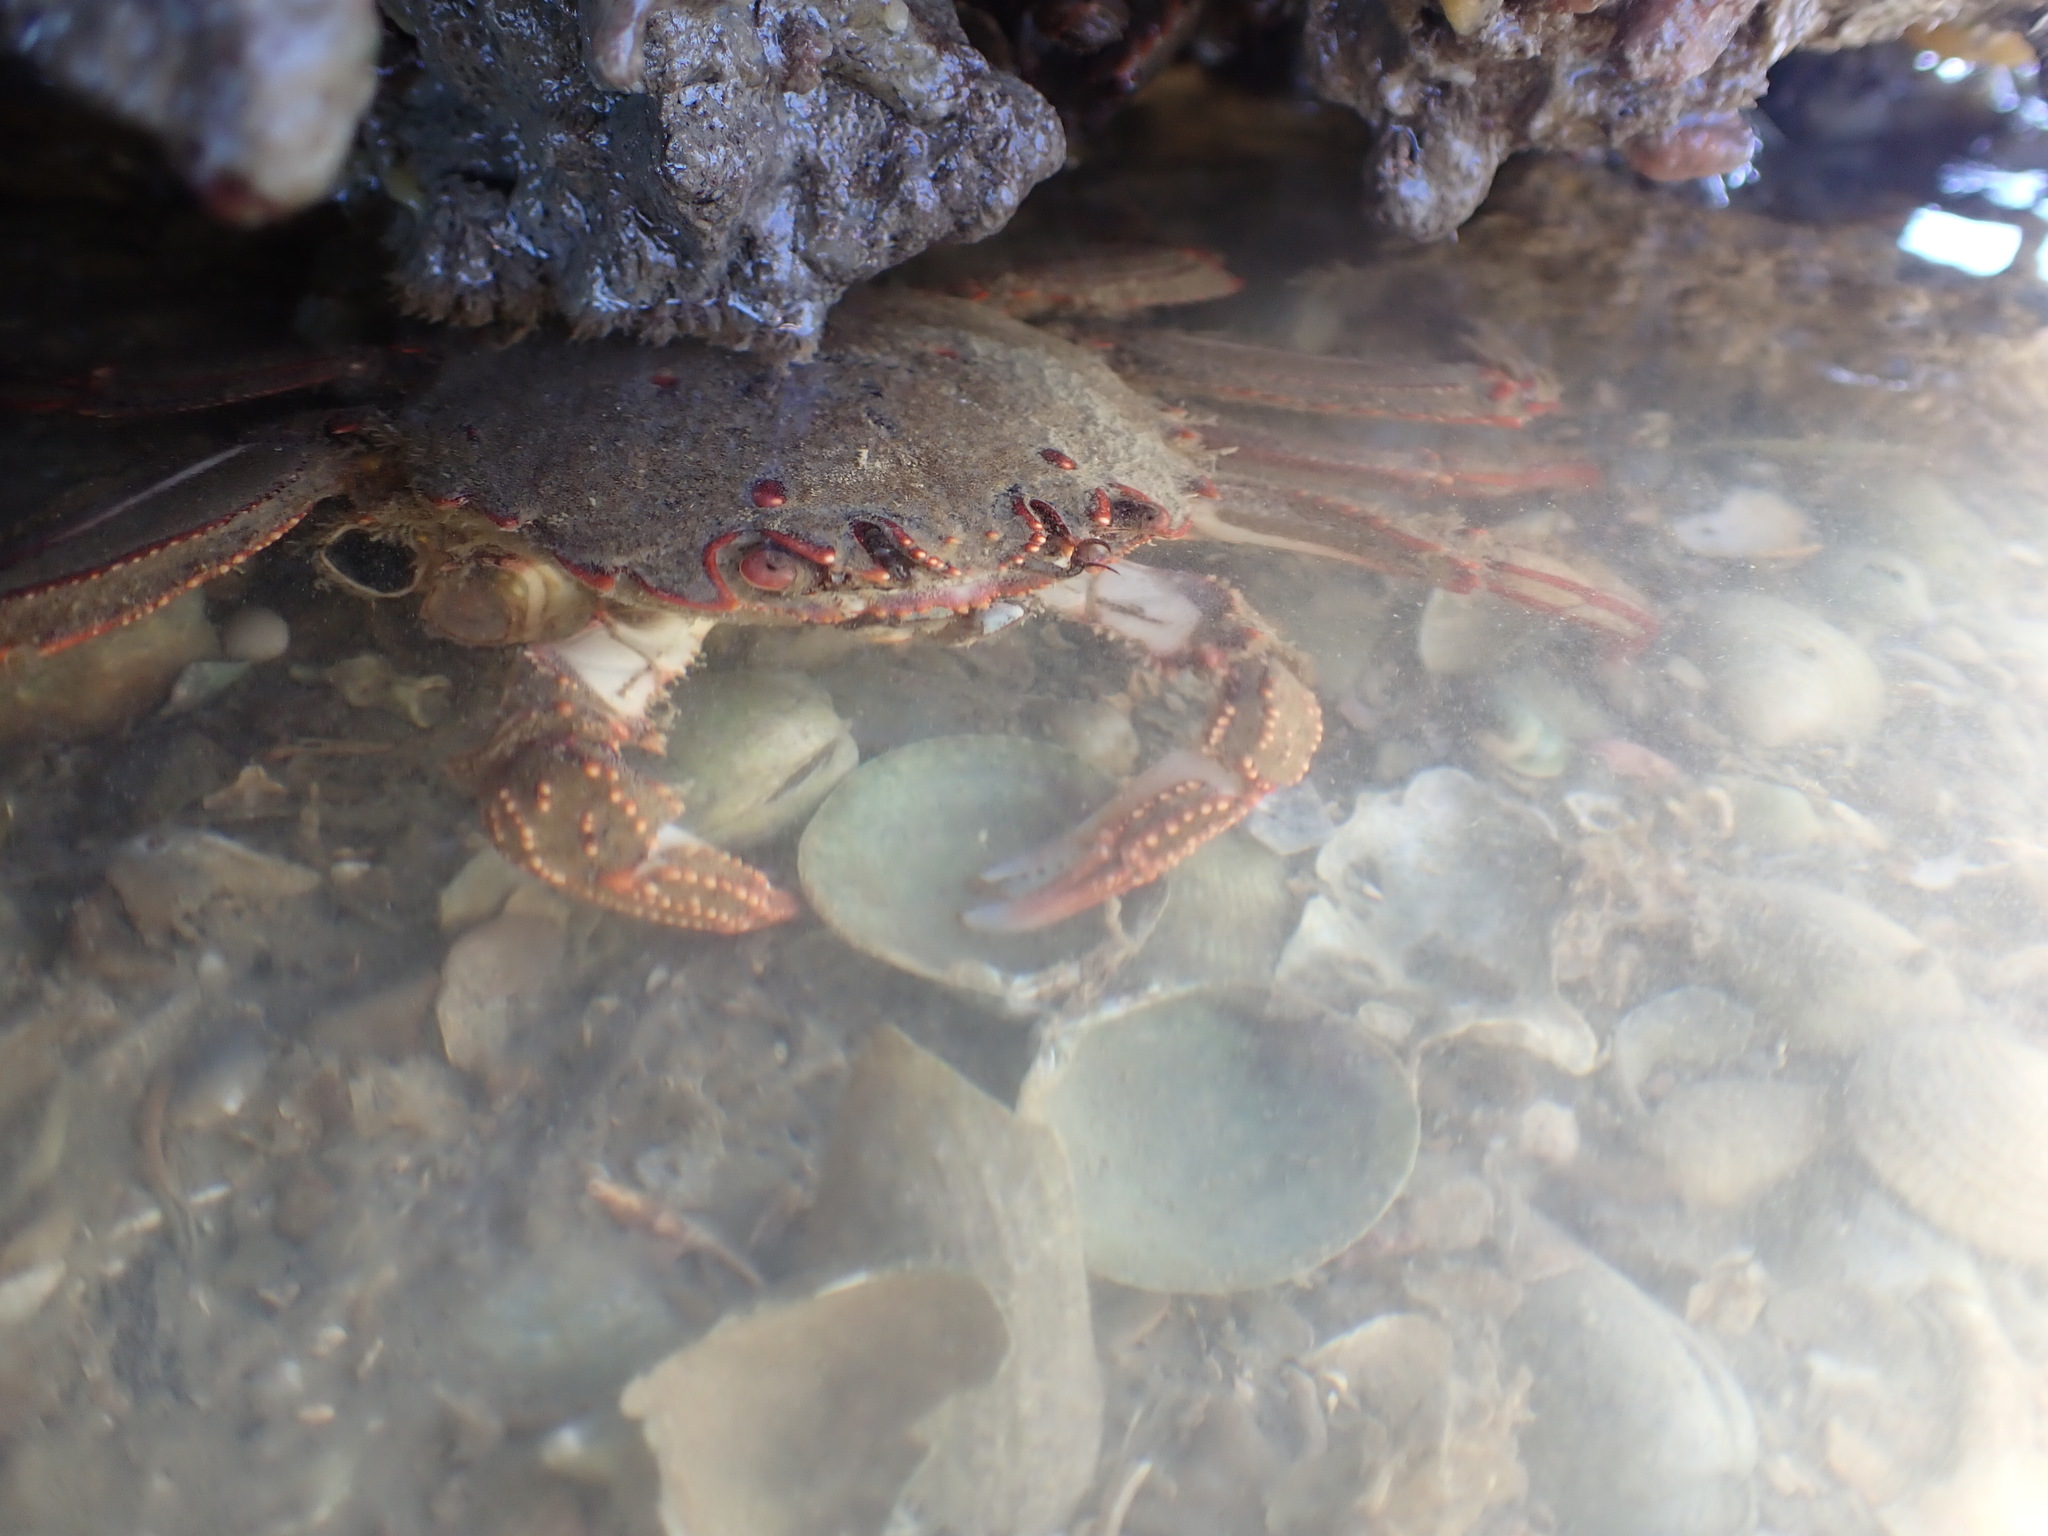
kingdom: Animalia
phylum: Arthropoda
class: Malacostraca
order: Decapoda
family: Plagusiidae
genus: Guinusia
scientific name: Guinusia chabrus
